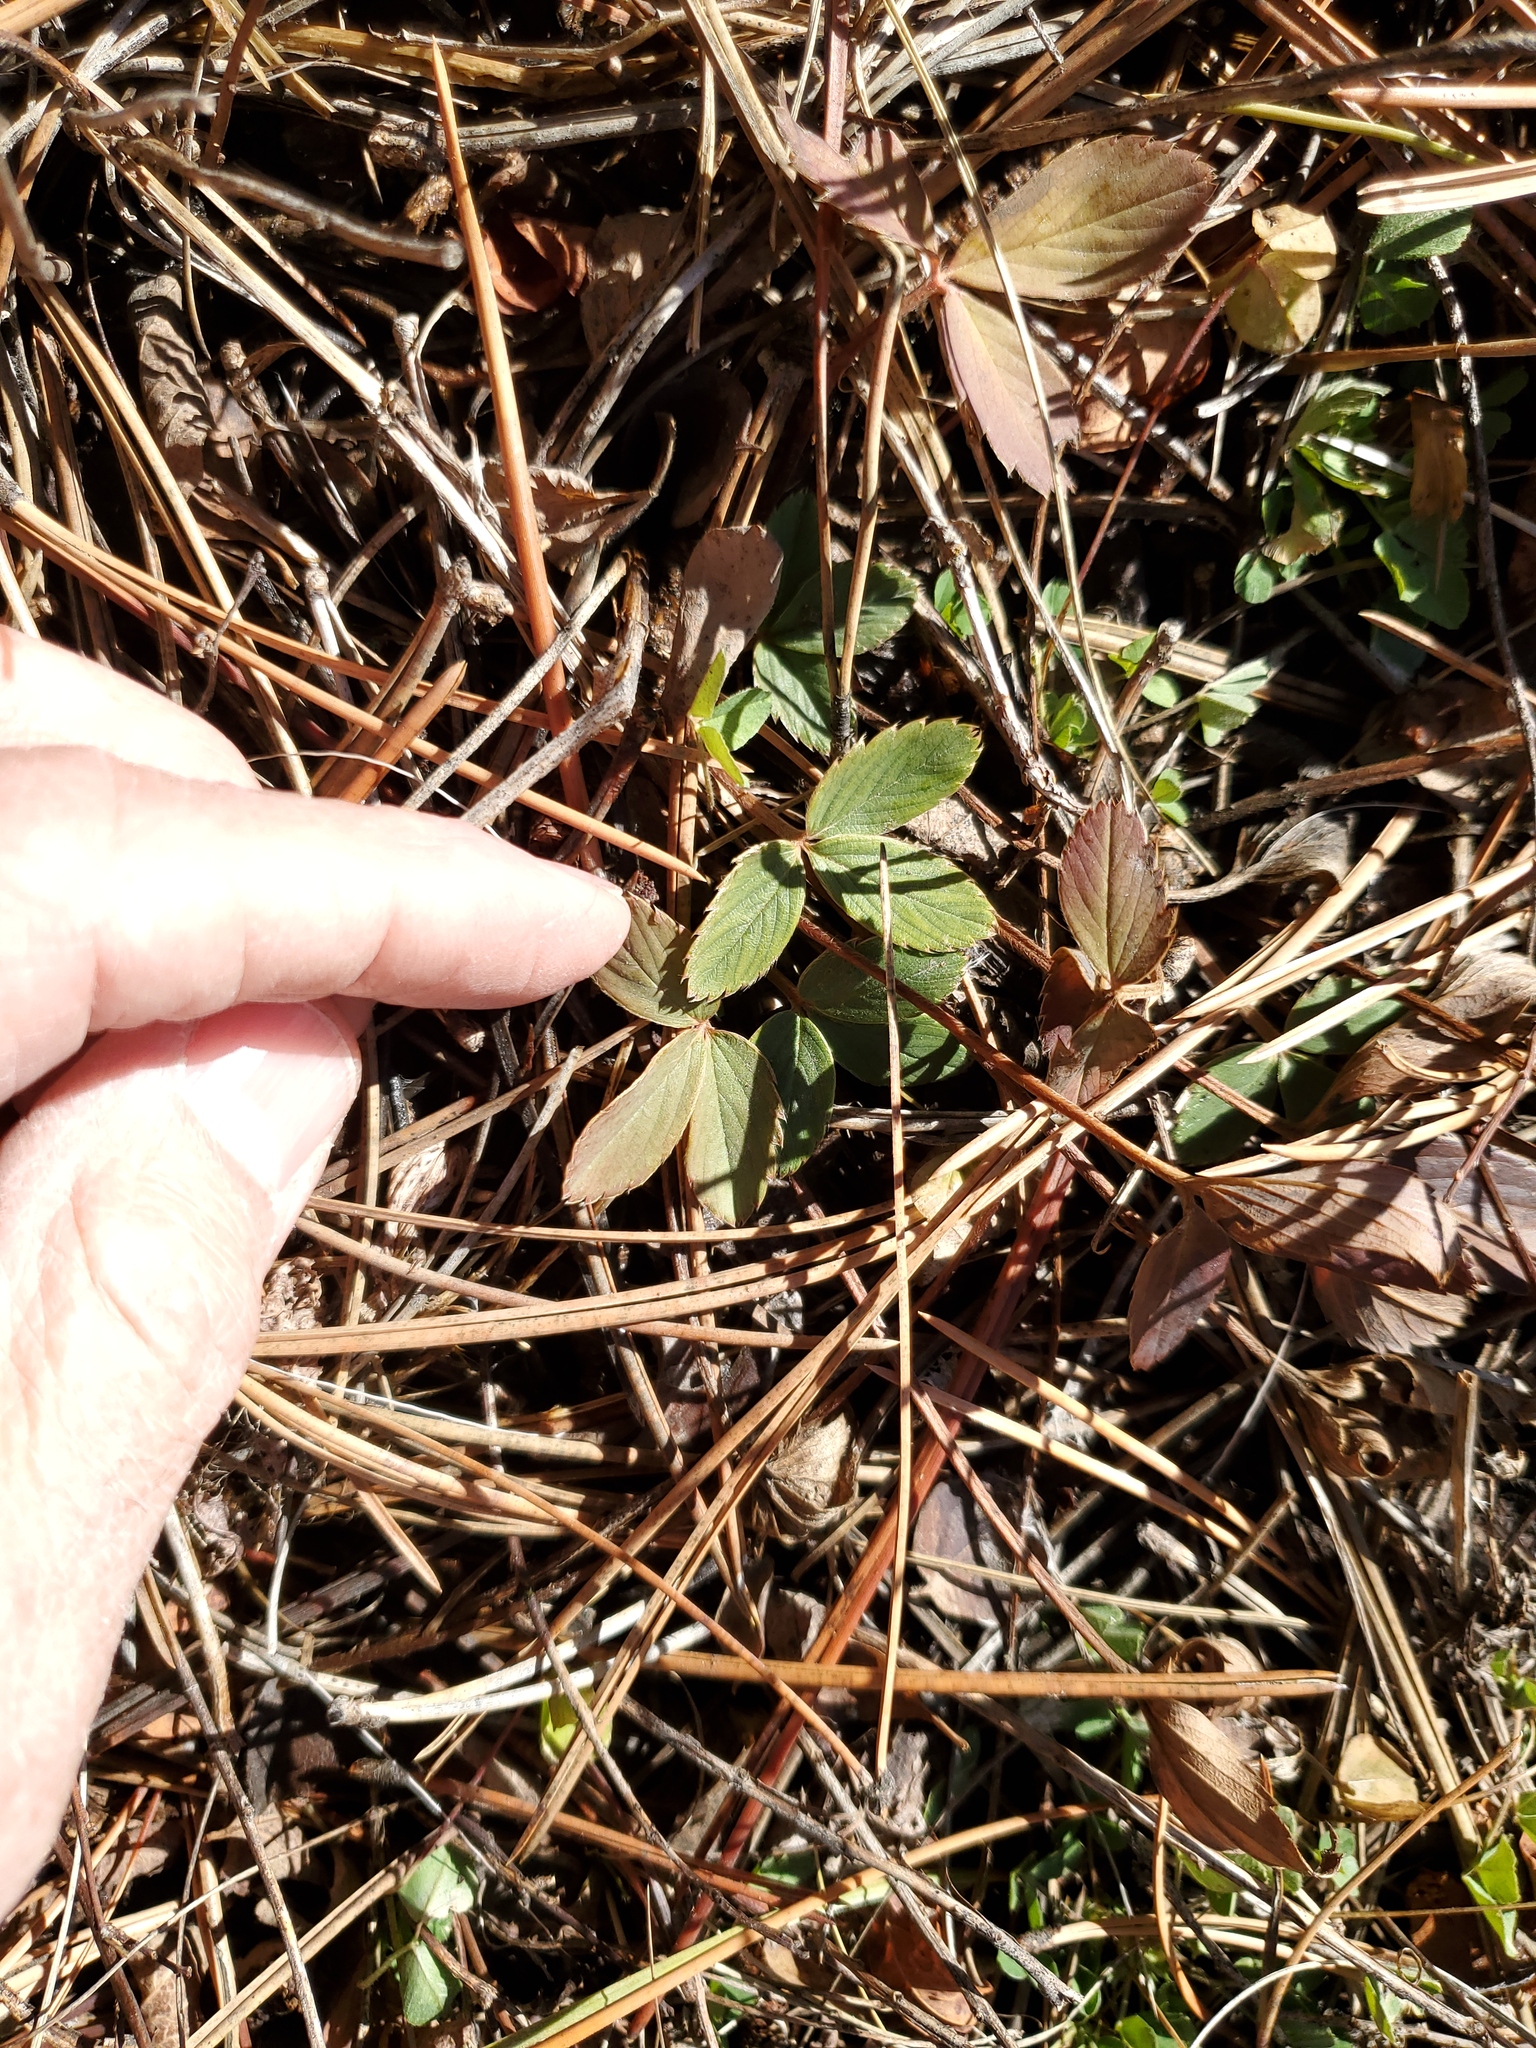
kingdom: Plantae
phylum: Tracheophyta
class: Magnoliopsida
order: Rosales
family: Rosaceae
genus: Fragaria
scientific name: Fragaria virginiana
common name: Thickleaved wild strawberry
